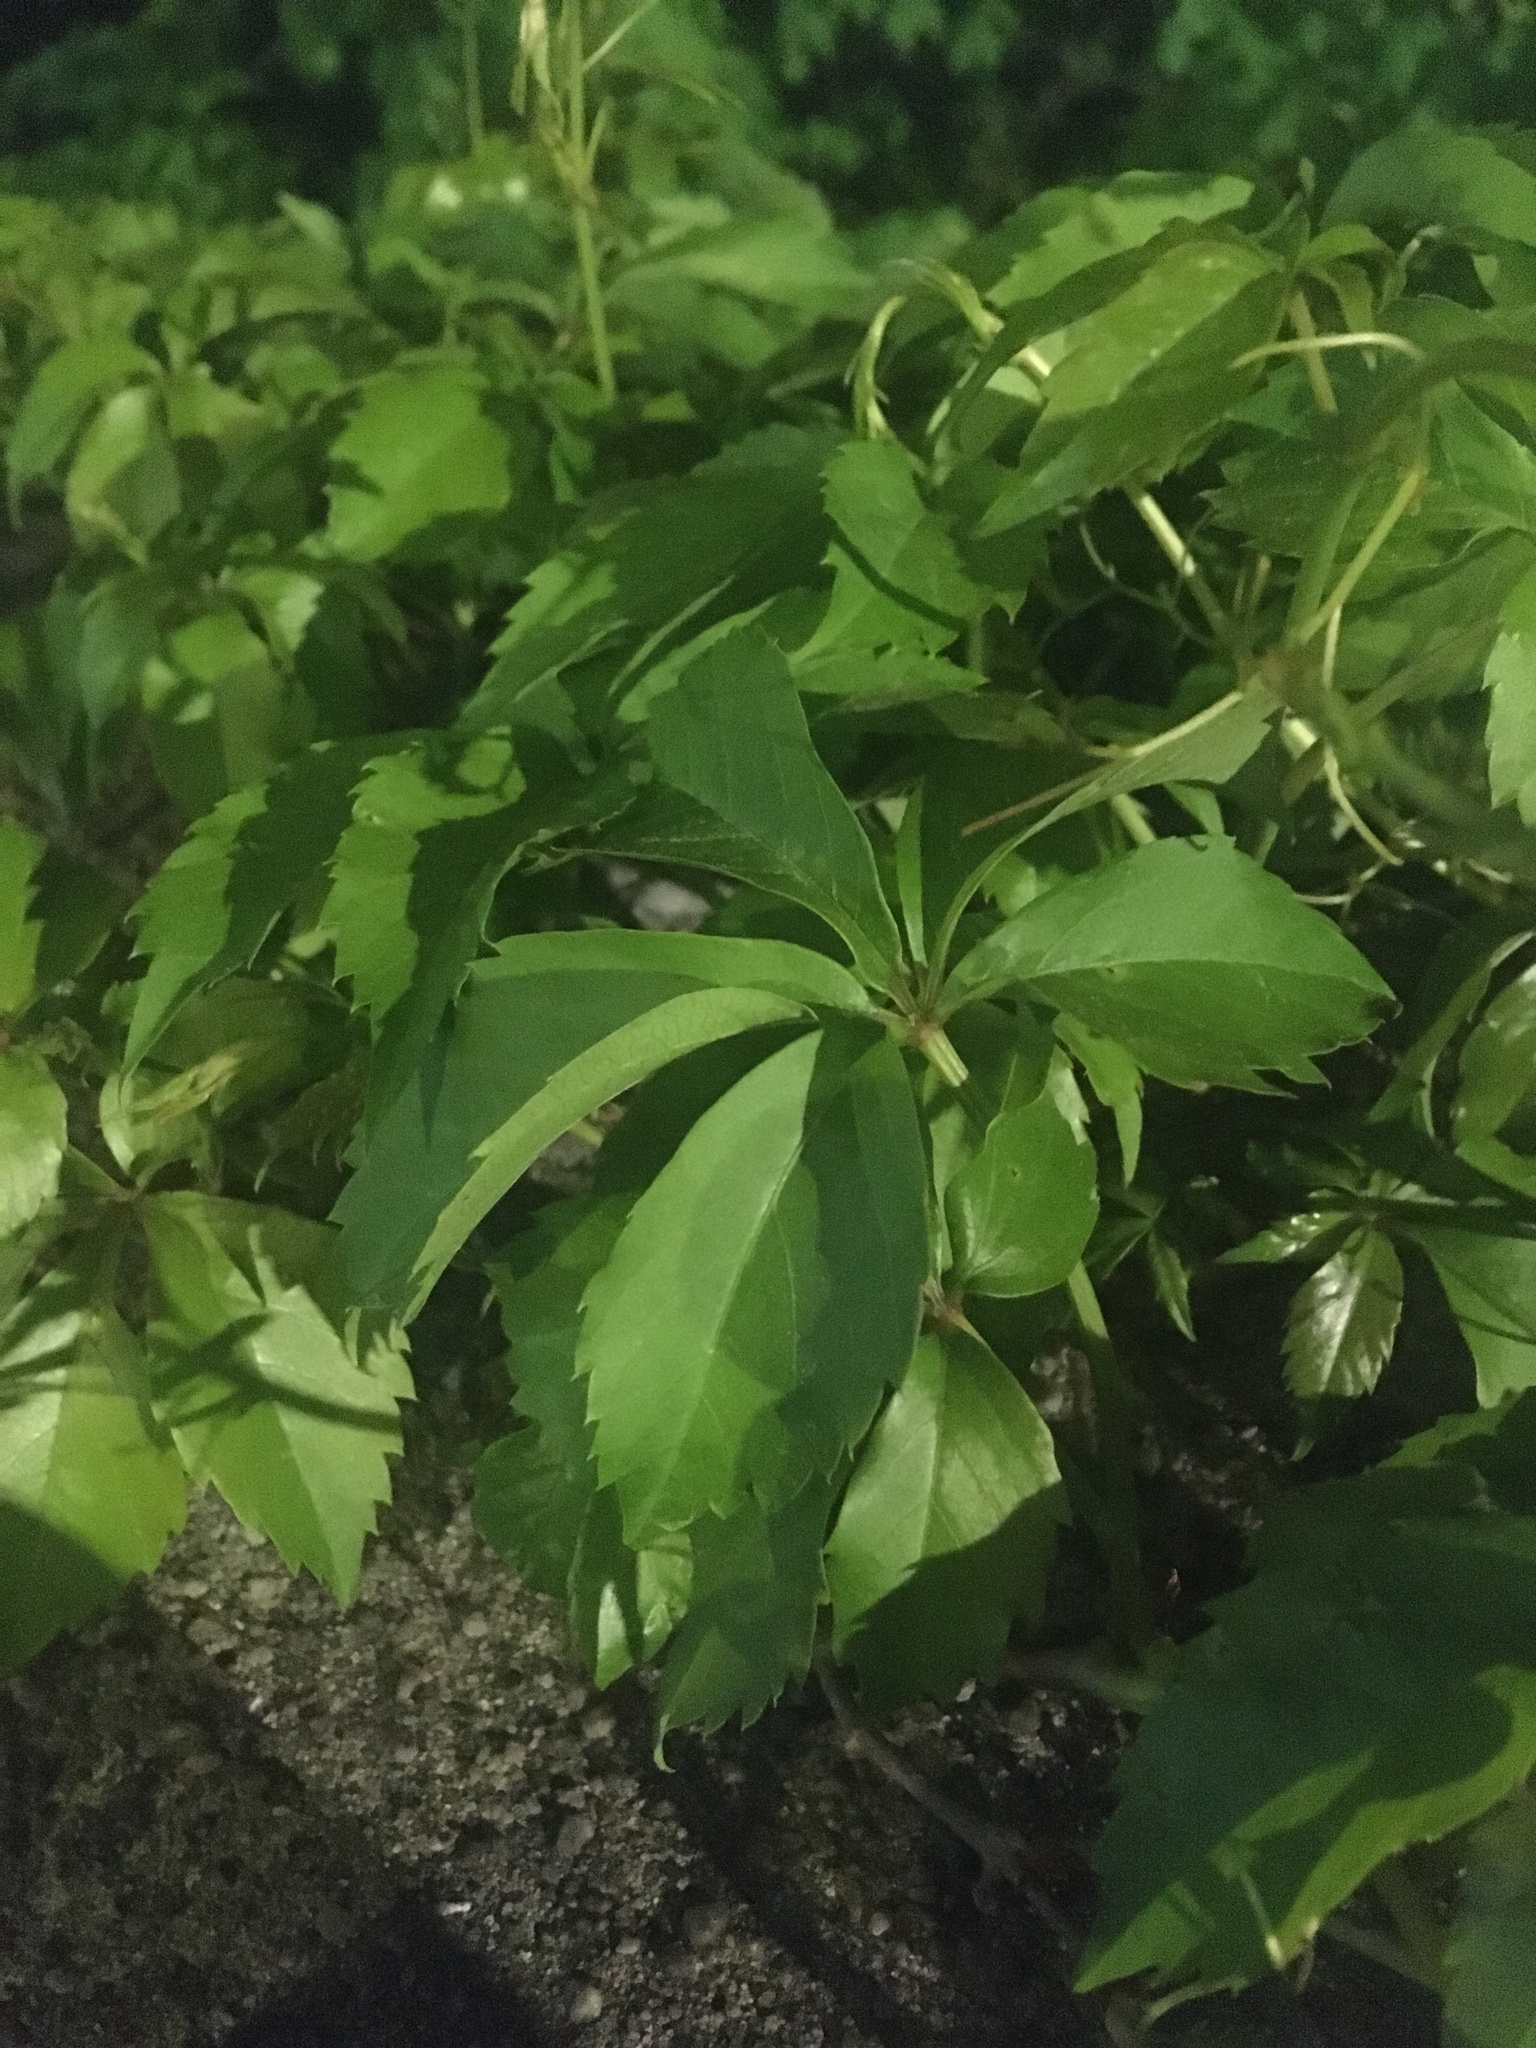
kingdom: Plantae
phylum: Tracheophyta
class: Magnoliopsida
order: Vitales
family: Vitaceae
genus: Parthenocissus
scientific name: Parthenocissus quinquefolia
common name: Virginia-creeper
